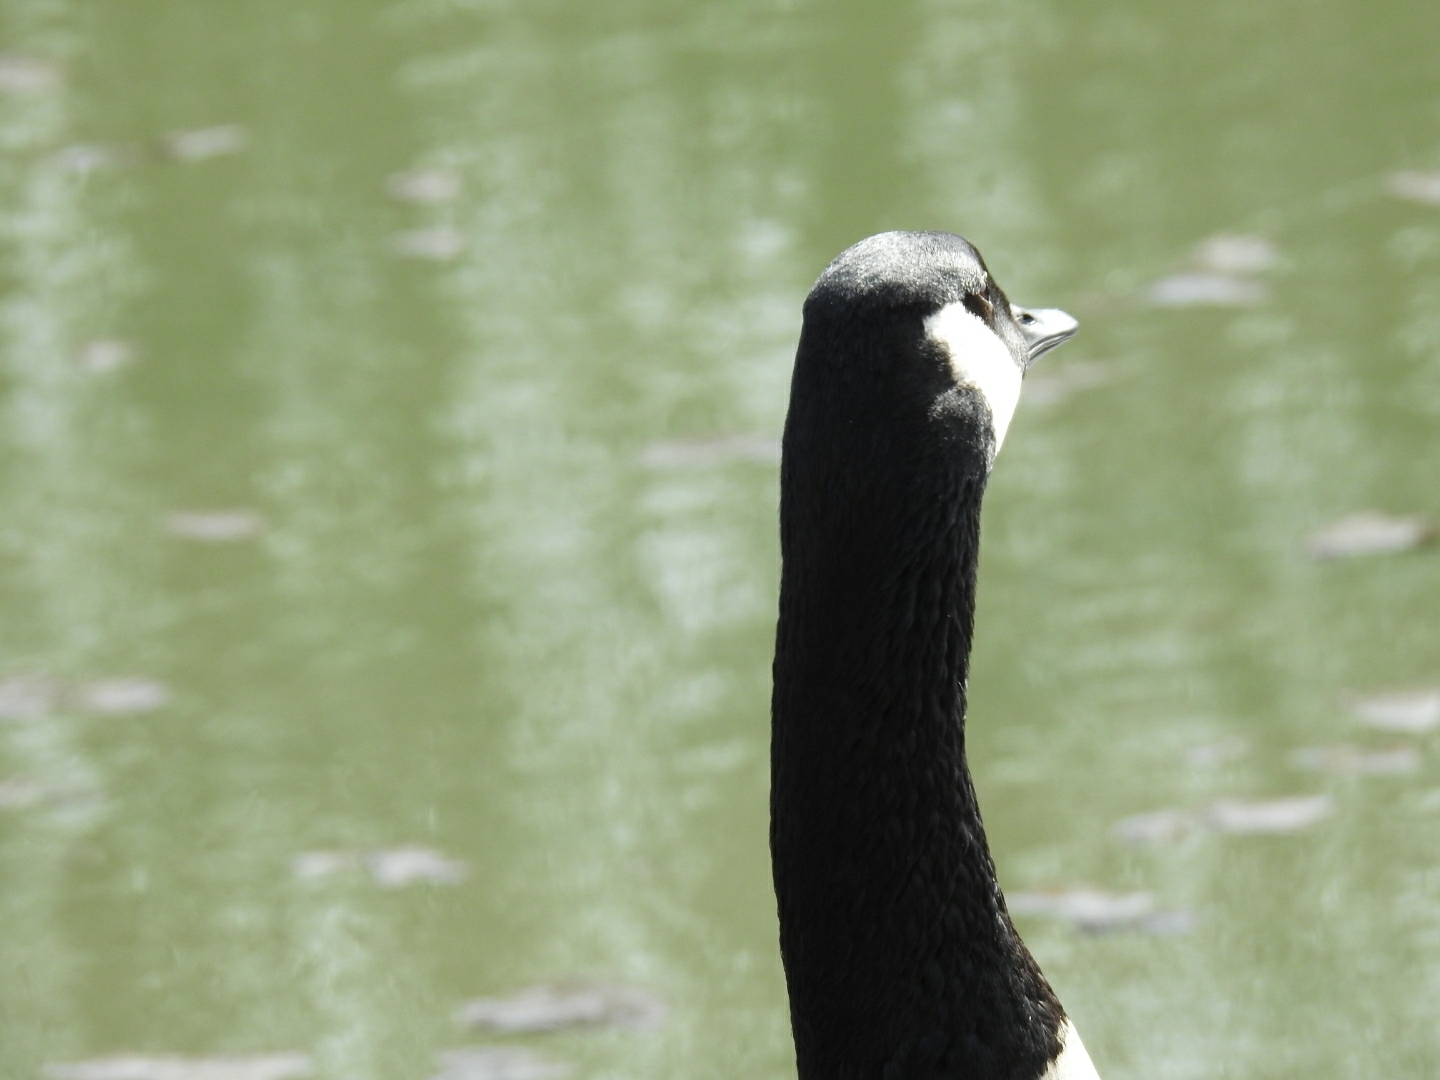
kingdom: Animalia
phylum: Chordata
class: Aves
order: Anseriformes
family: Anatidae
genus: Branta
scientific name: Branta canadensis
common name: Canada goose
